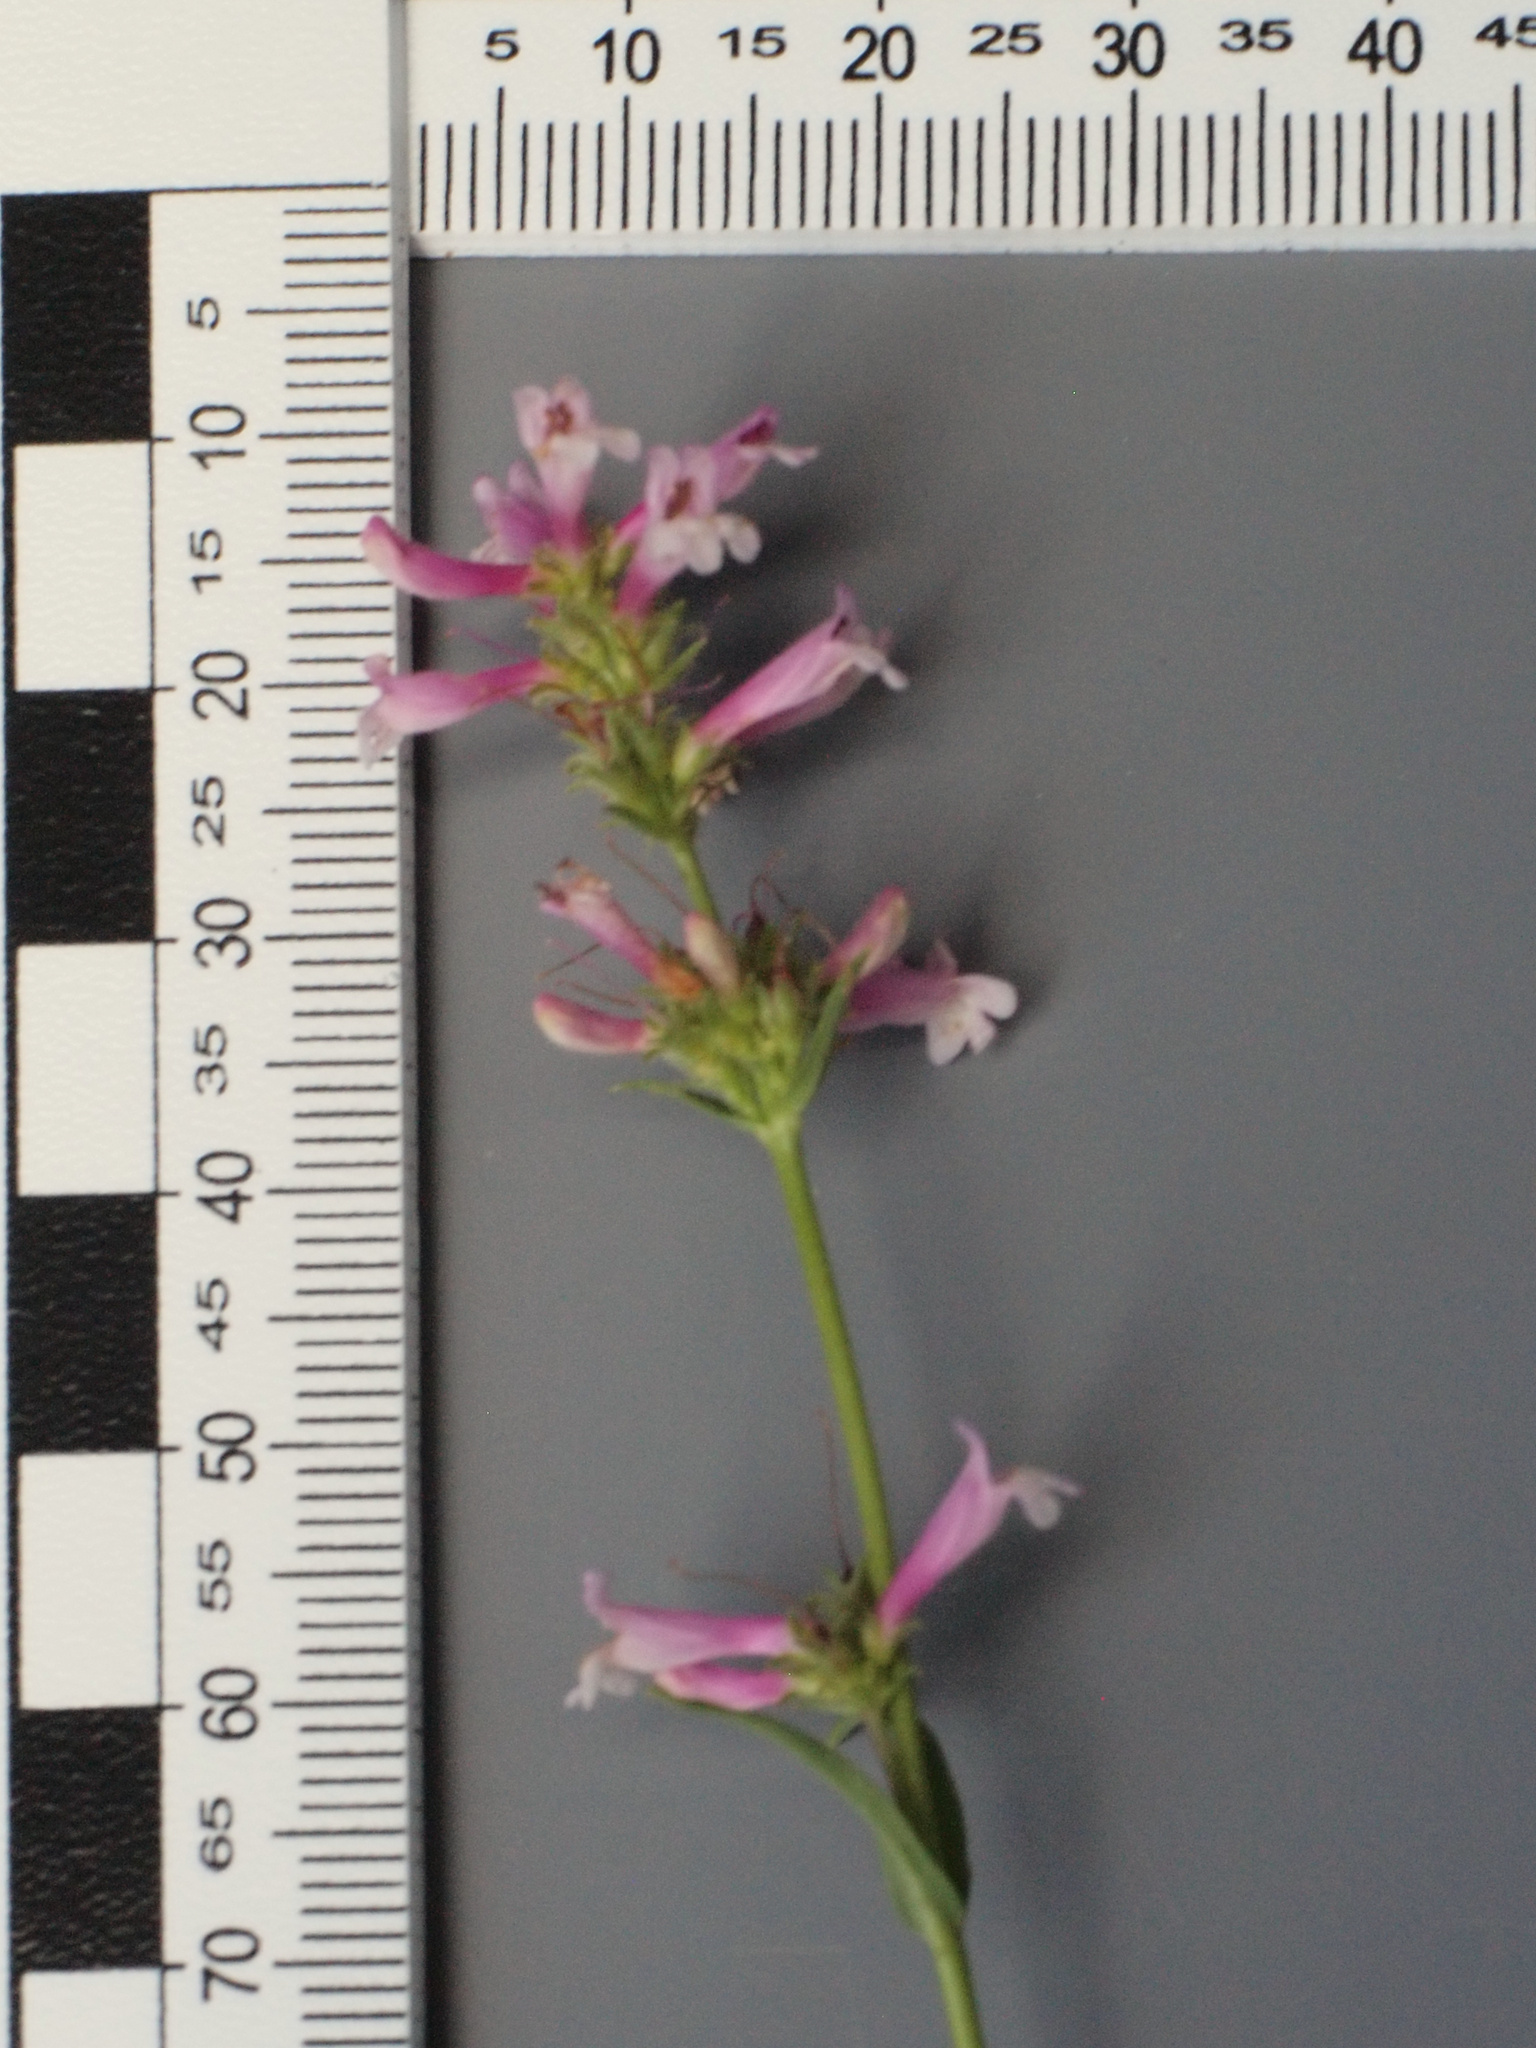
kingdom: Plantae
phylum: Tracheophyta
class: Magnoliopsida
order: Lamiales
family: Plantaginaceae
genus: Penstemon
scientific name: Penstemon peckii
